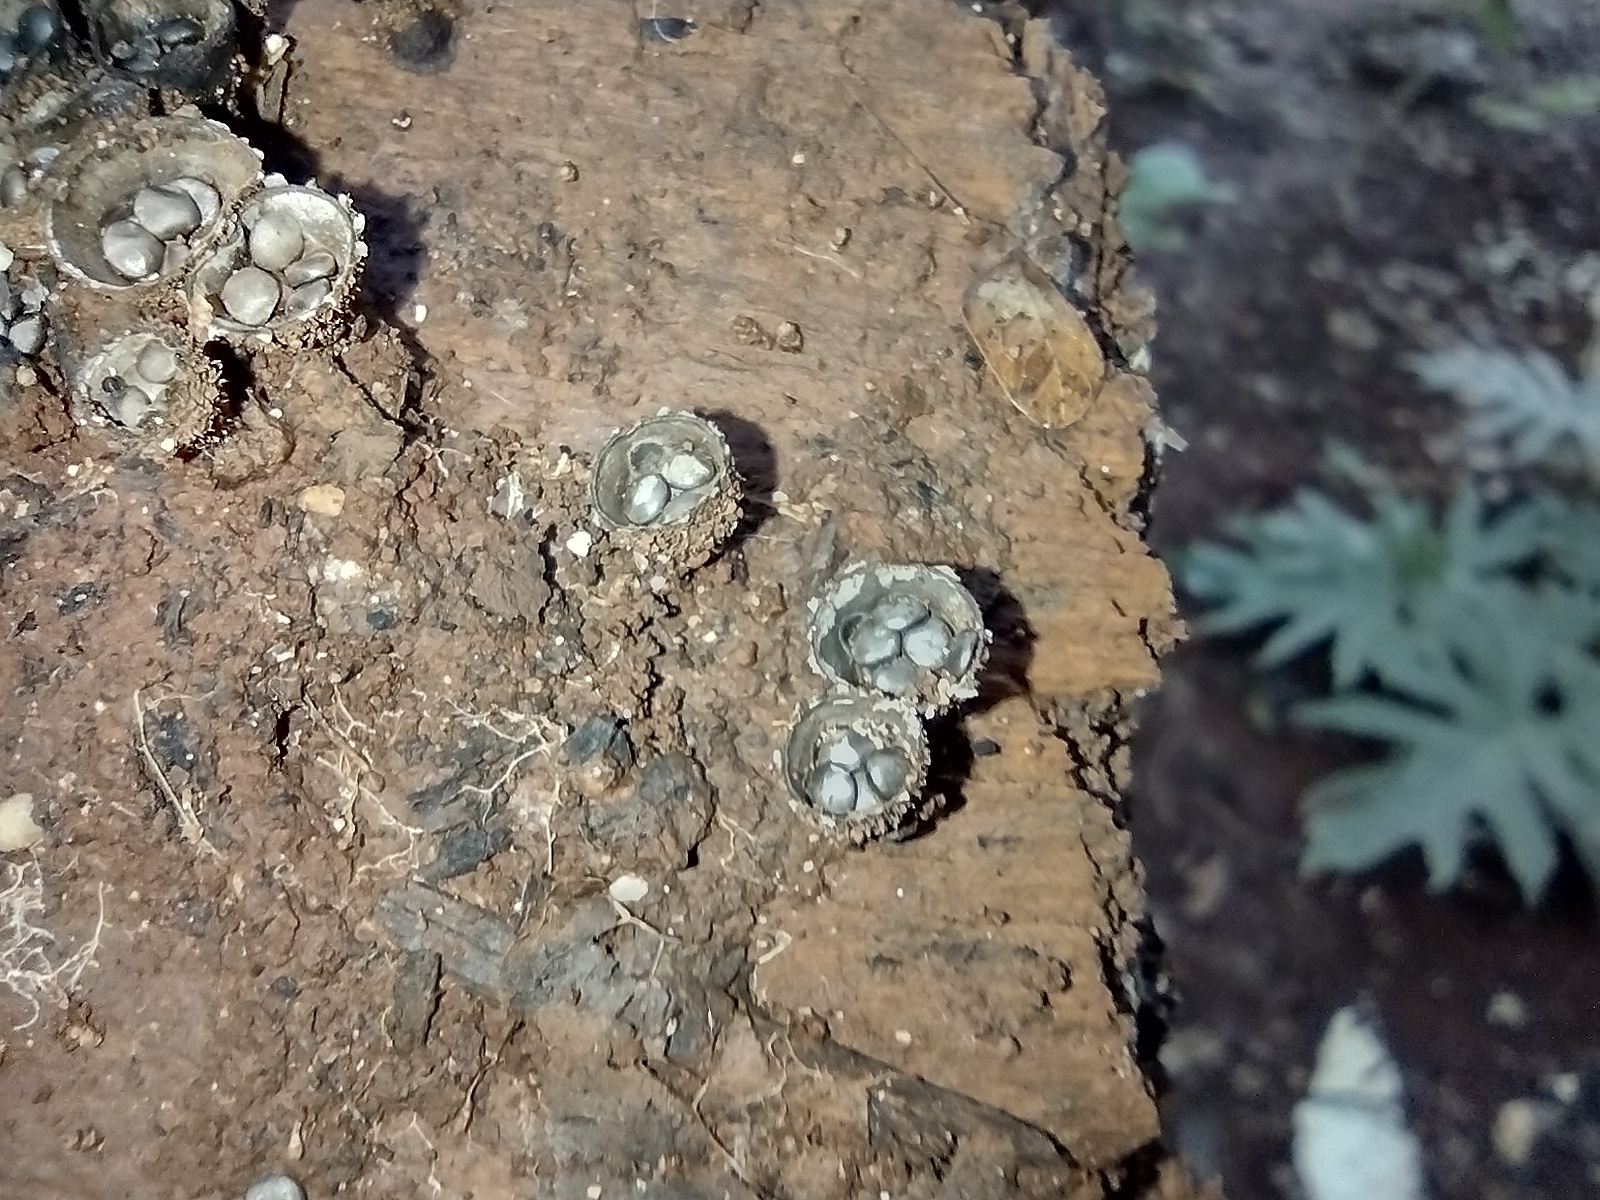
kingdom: Fungi
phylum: Basidiomycota
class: Agaricomycetes
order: Agaricales
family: Agaricaceae
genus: Cyathus
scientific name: Cyathus stercoreus
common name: Dung bird's nest
